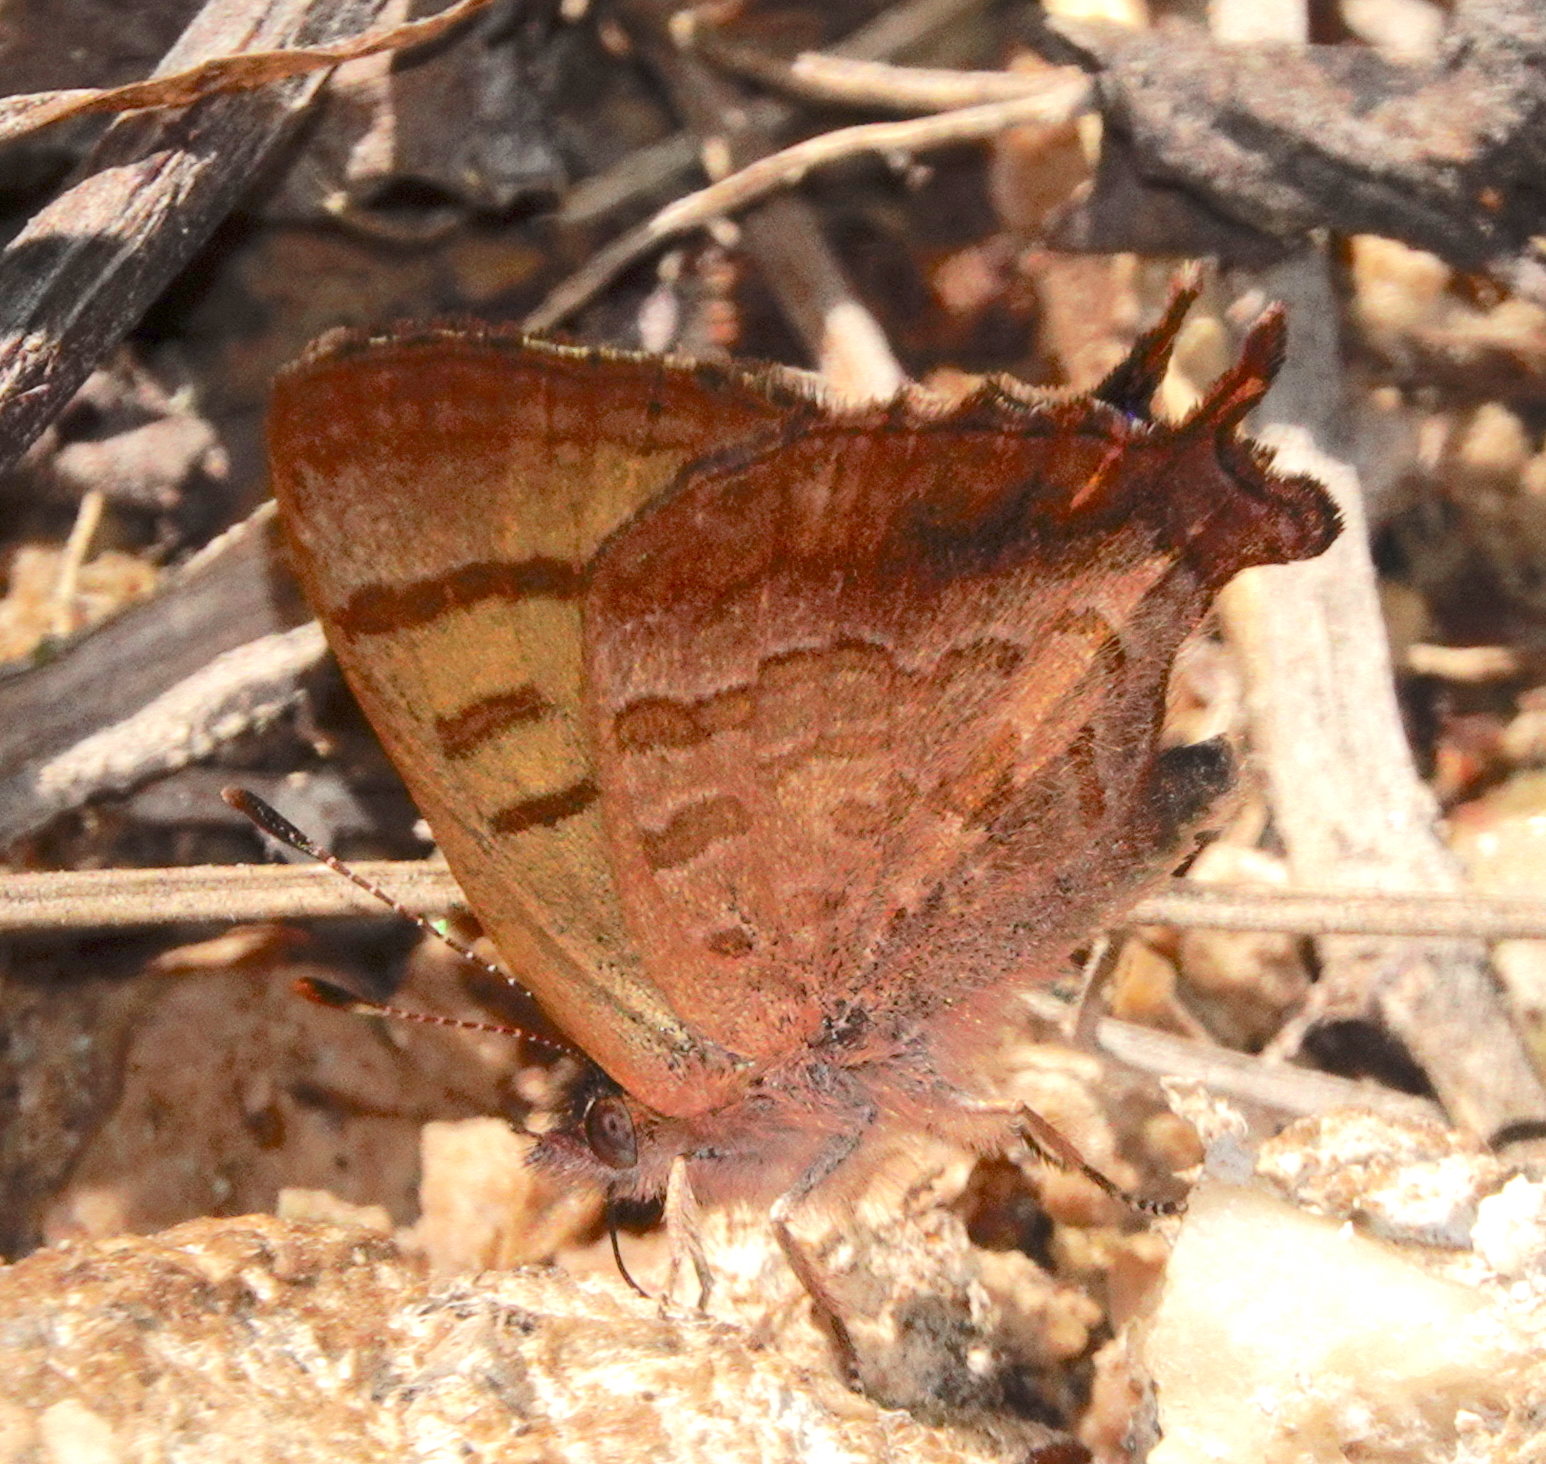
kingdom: Animalia
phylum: Arthropoda
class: Insecta
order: Lepidoptera
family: Lycaenidae
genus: Iophanus
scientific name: Iophanus pyrrhias
